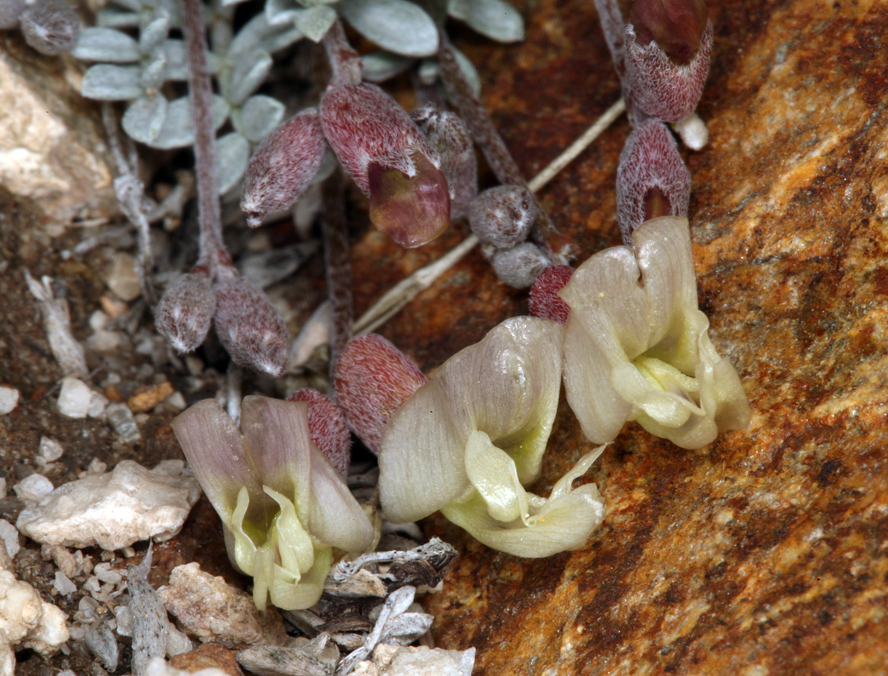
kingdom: Plantae
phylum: Tracheophyta
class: Magnoliopsida
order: Fabales
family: Fabaceae
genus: Astragalus
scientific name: Astragalus calycosus
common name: King's milkvetch
